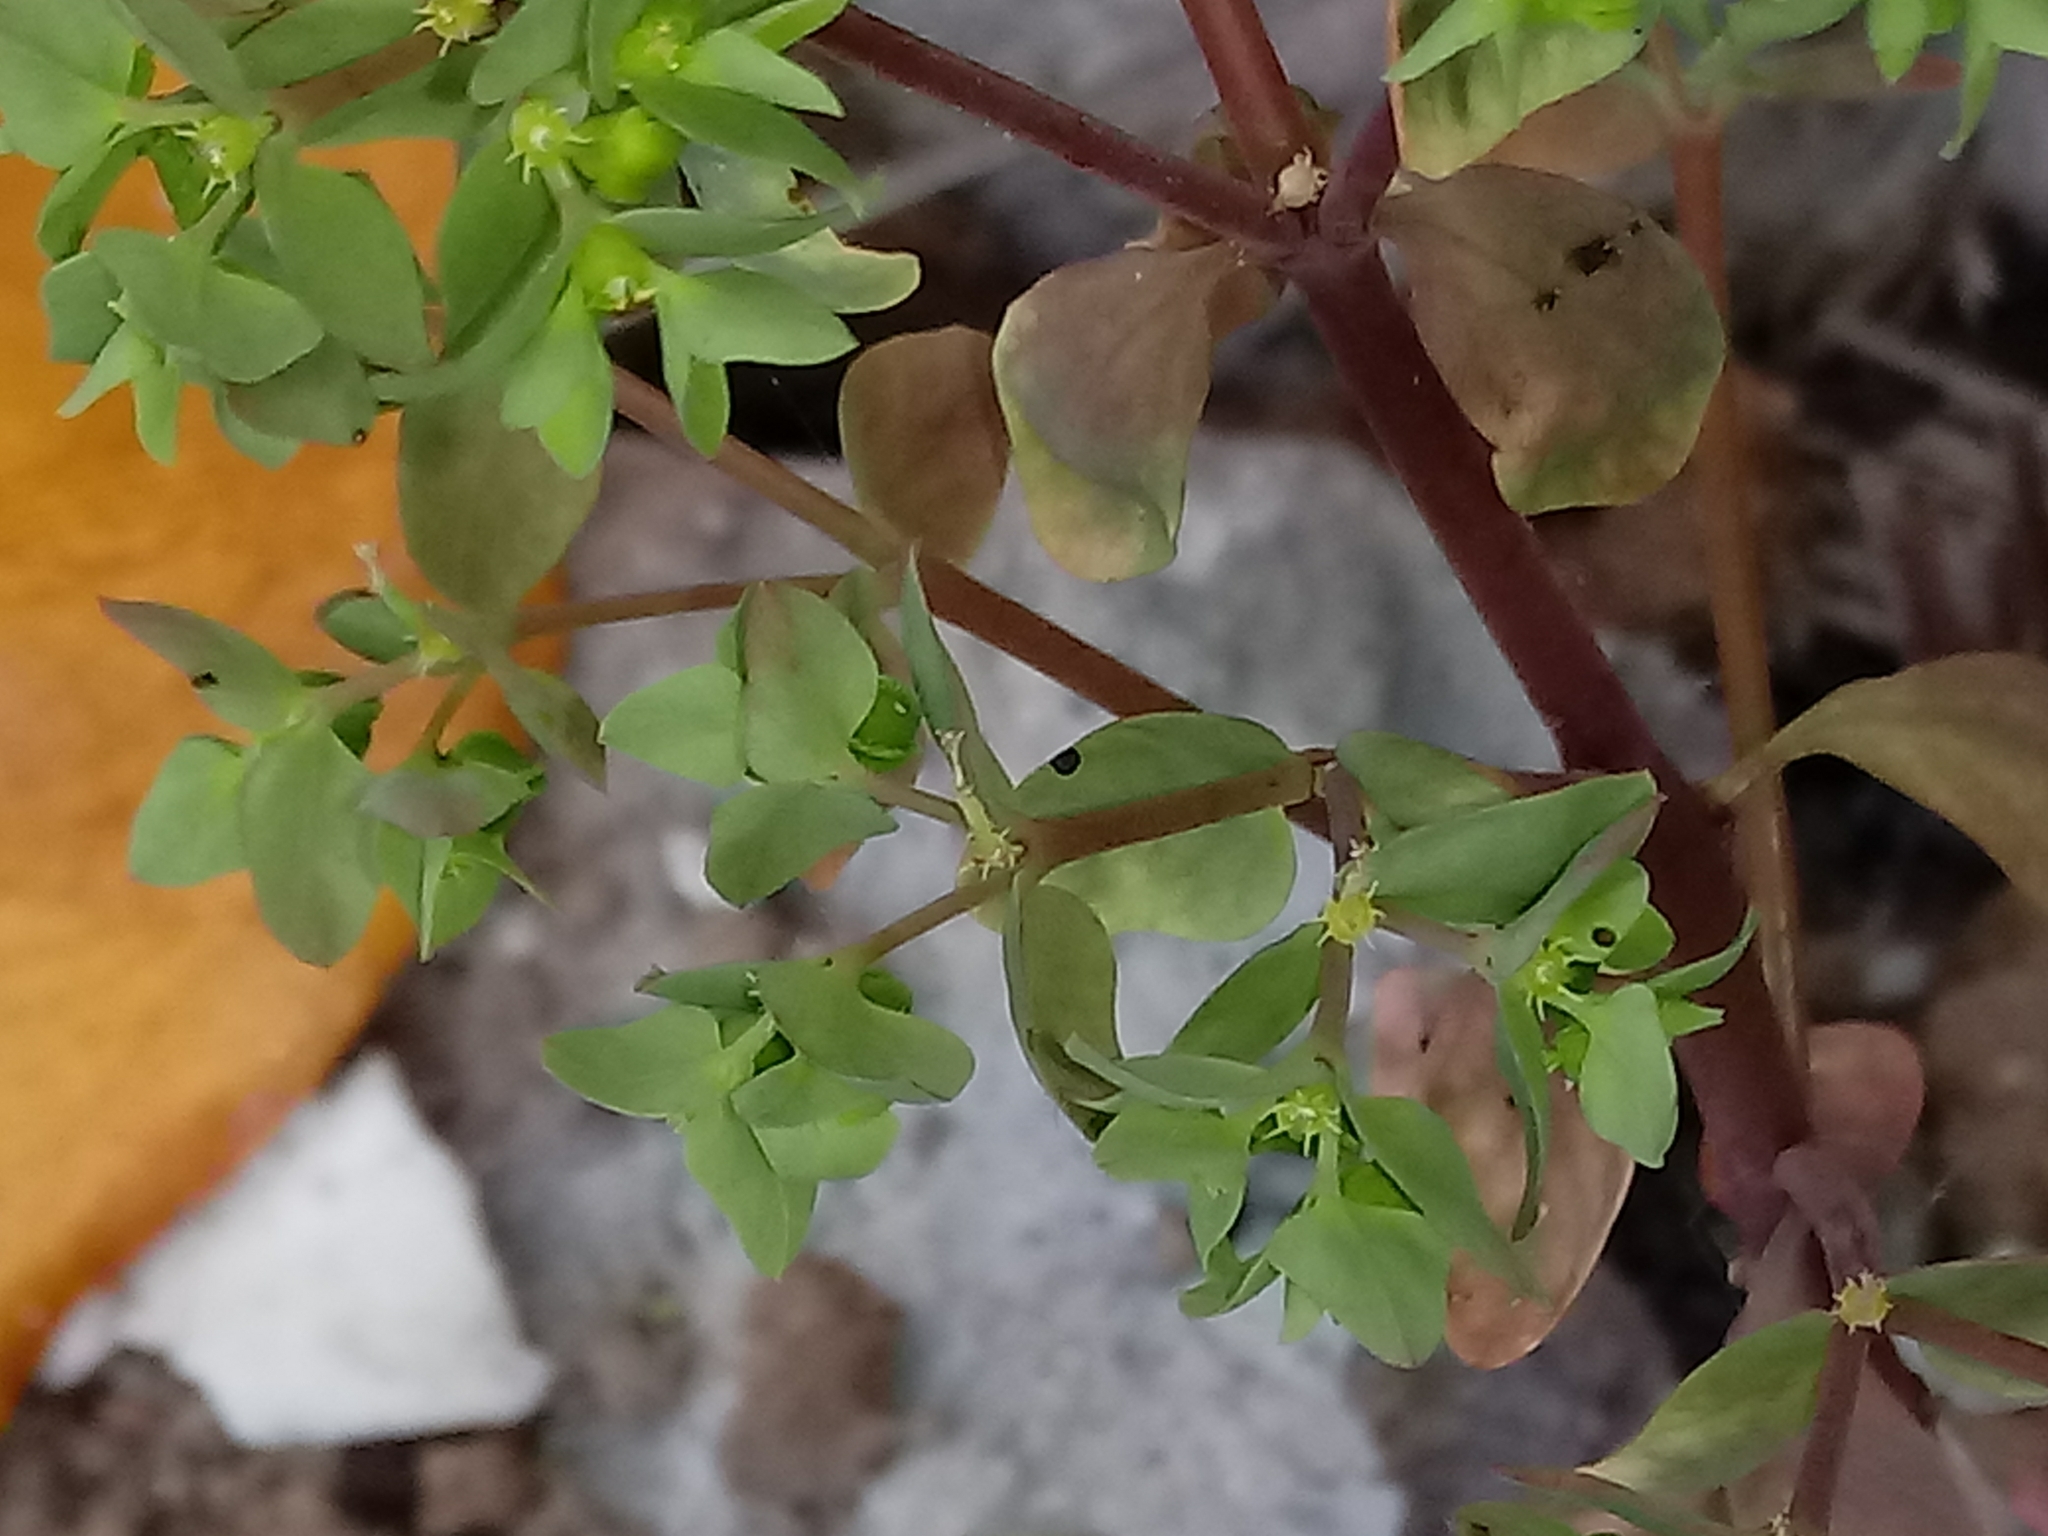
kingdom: Plantae
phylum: Tracheophyta
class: Magnoliopsida
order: Malpighiales
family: Euphorbiaceae
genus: Euphorbia
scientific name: Euphorbia peplus
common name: Petty spurge
